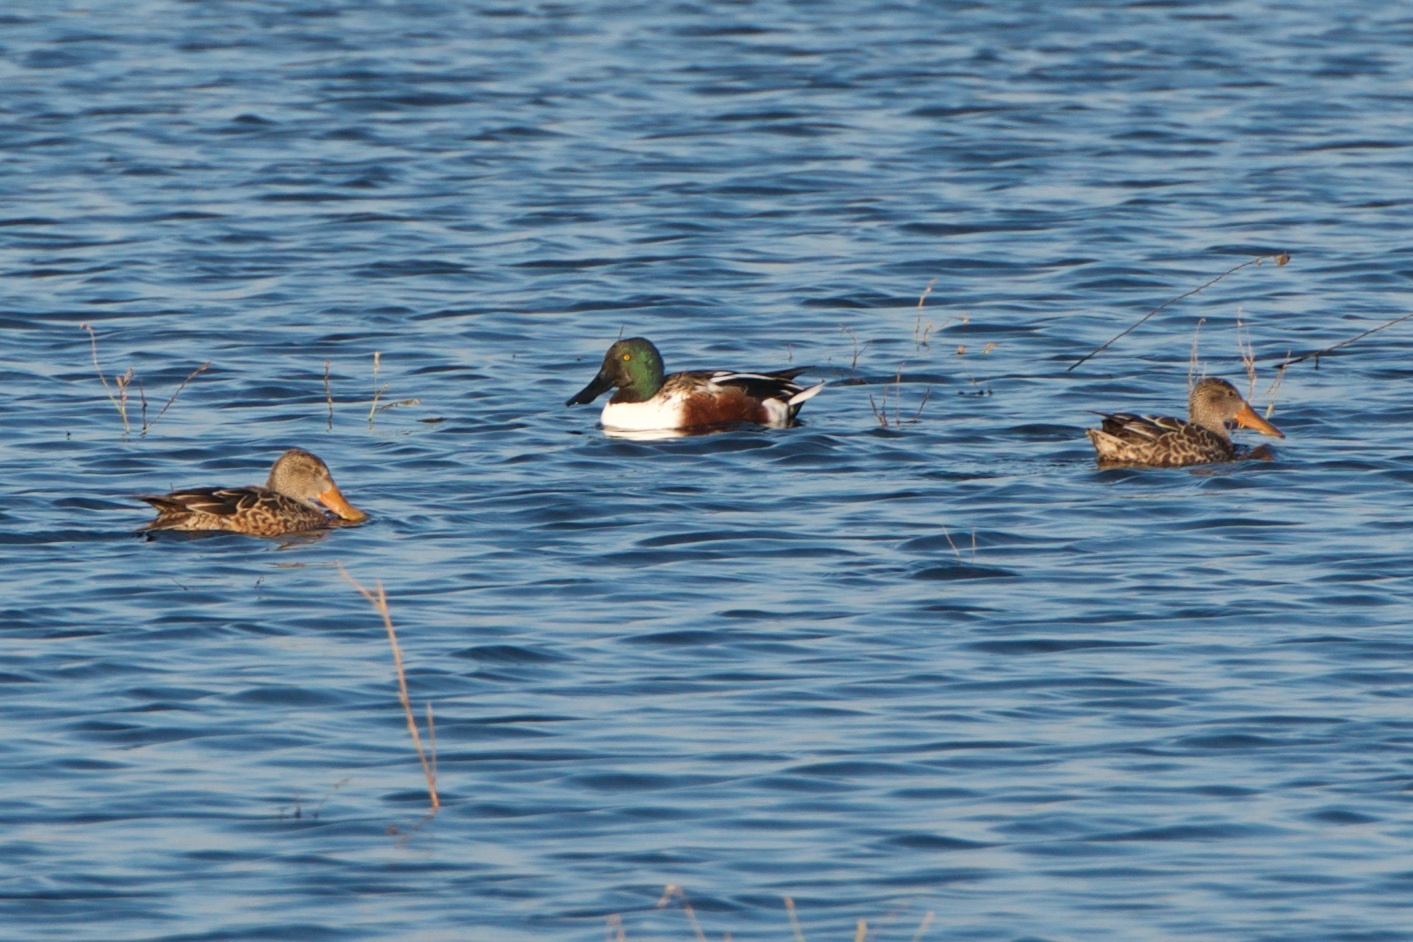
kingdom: Animalia
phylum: Chordata
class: Aves
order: Anseriformes
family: Anatidae
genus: Spatula
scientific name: Spatula clypeata
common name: Northern shoveler
